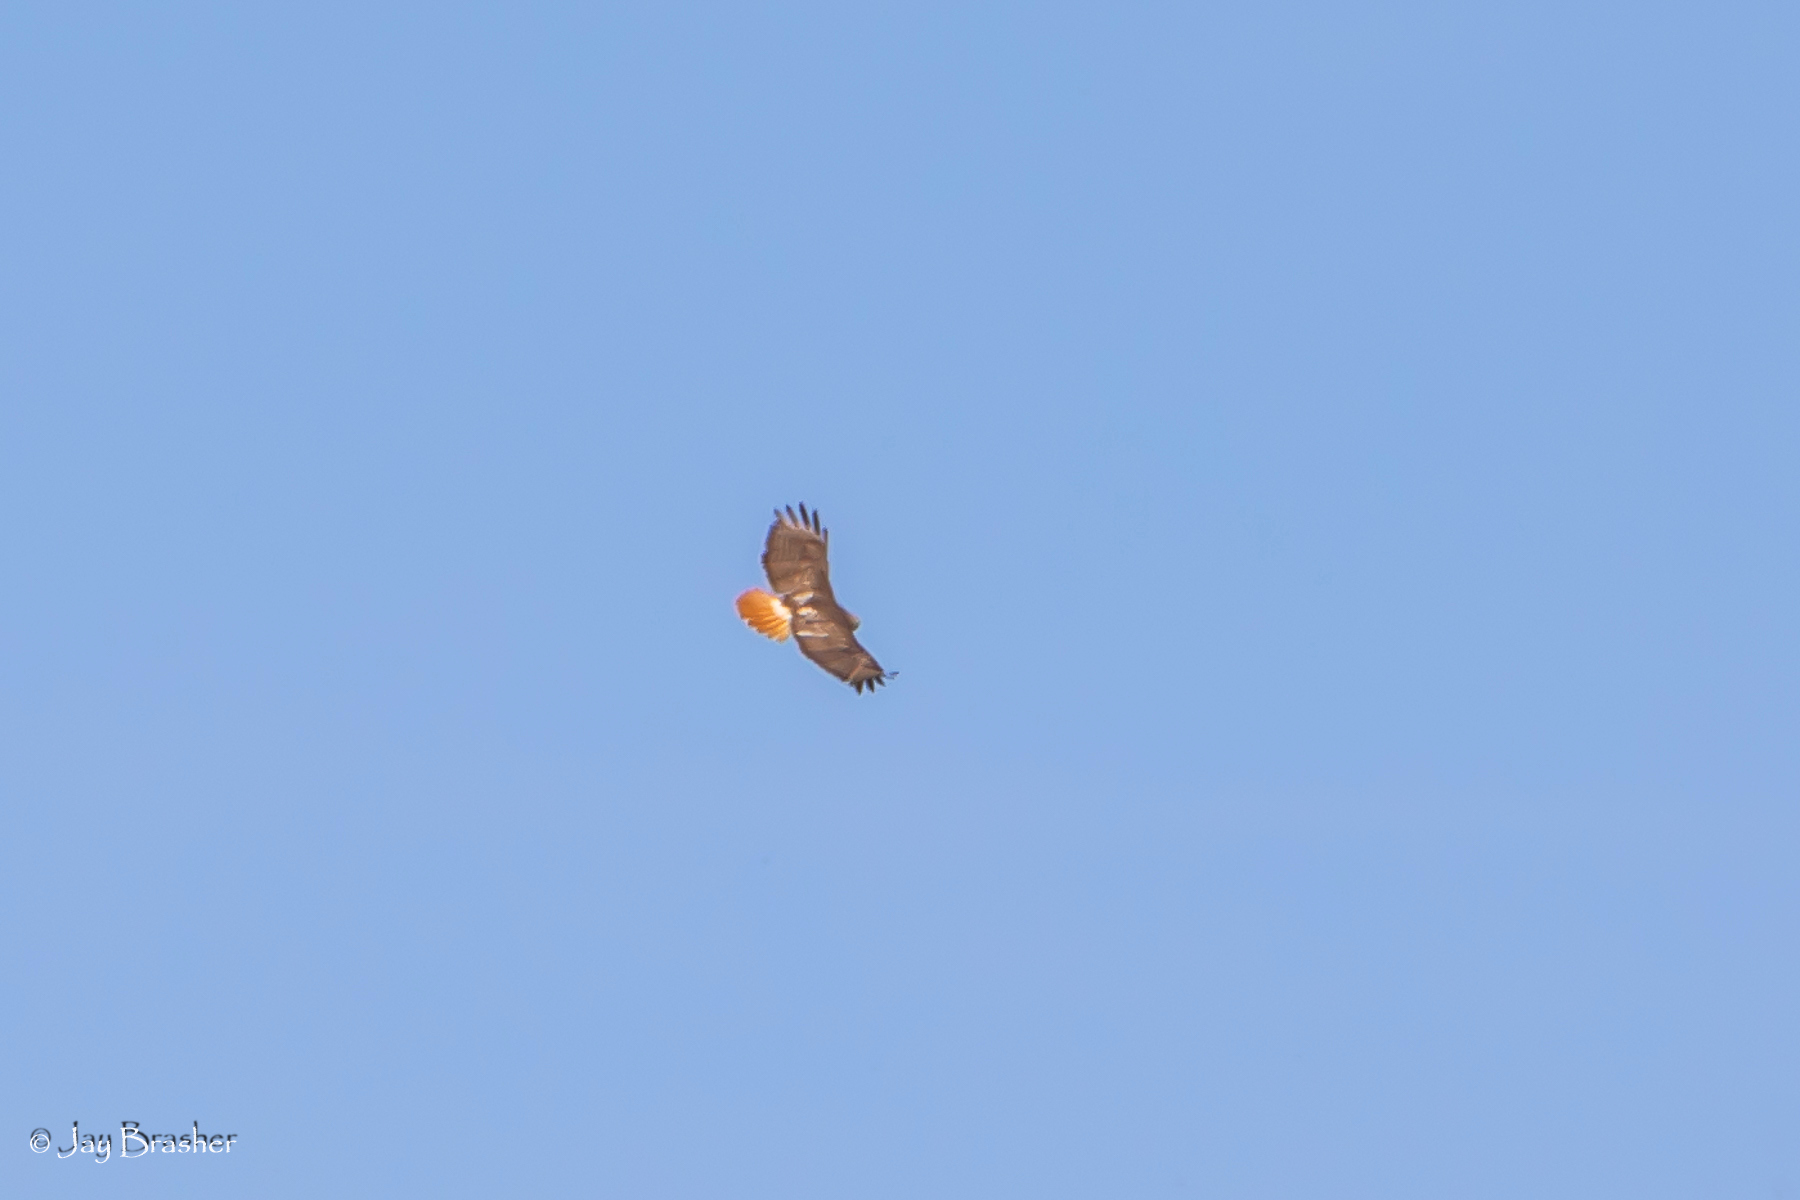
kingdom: Animalia
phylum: Chordata
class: Aves
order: Accipitriformes
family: Accipitridae
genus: Buteo
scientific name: Buteo jamaicensis
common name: Red-tailed hawk
